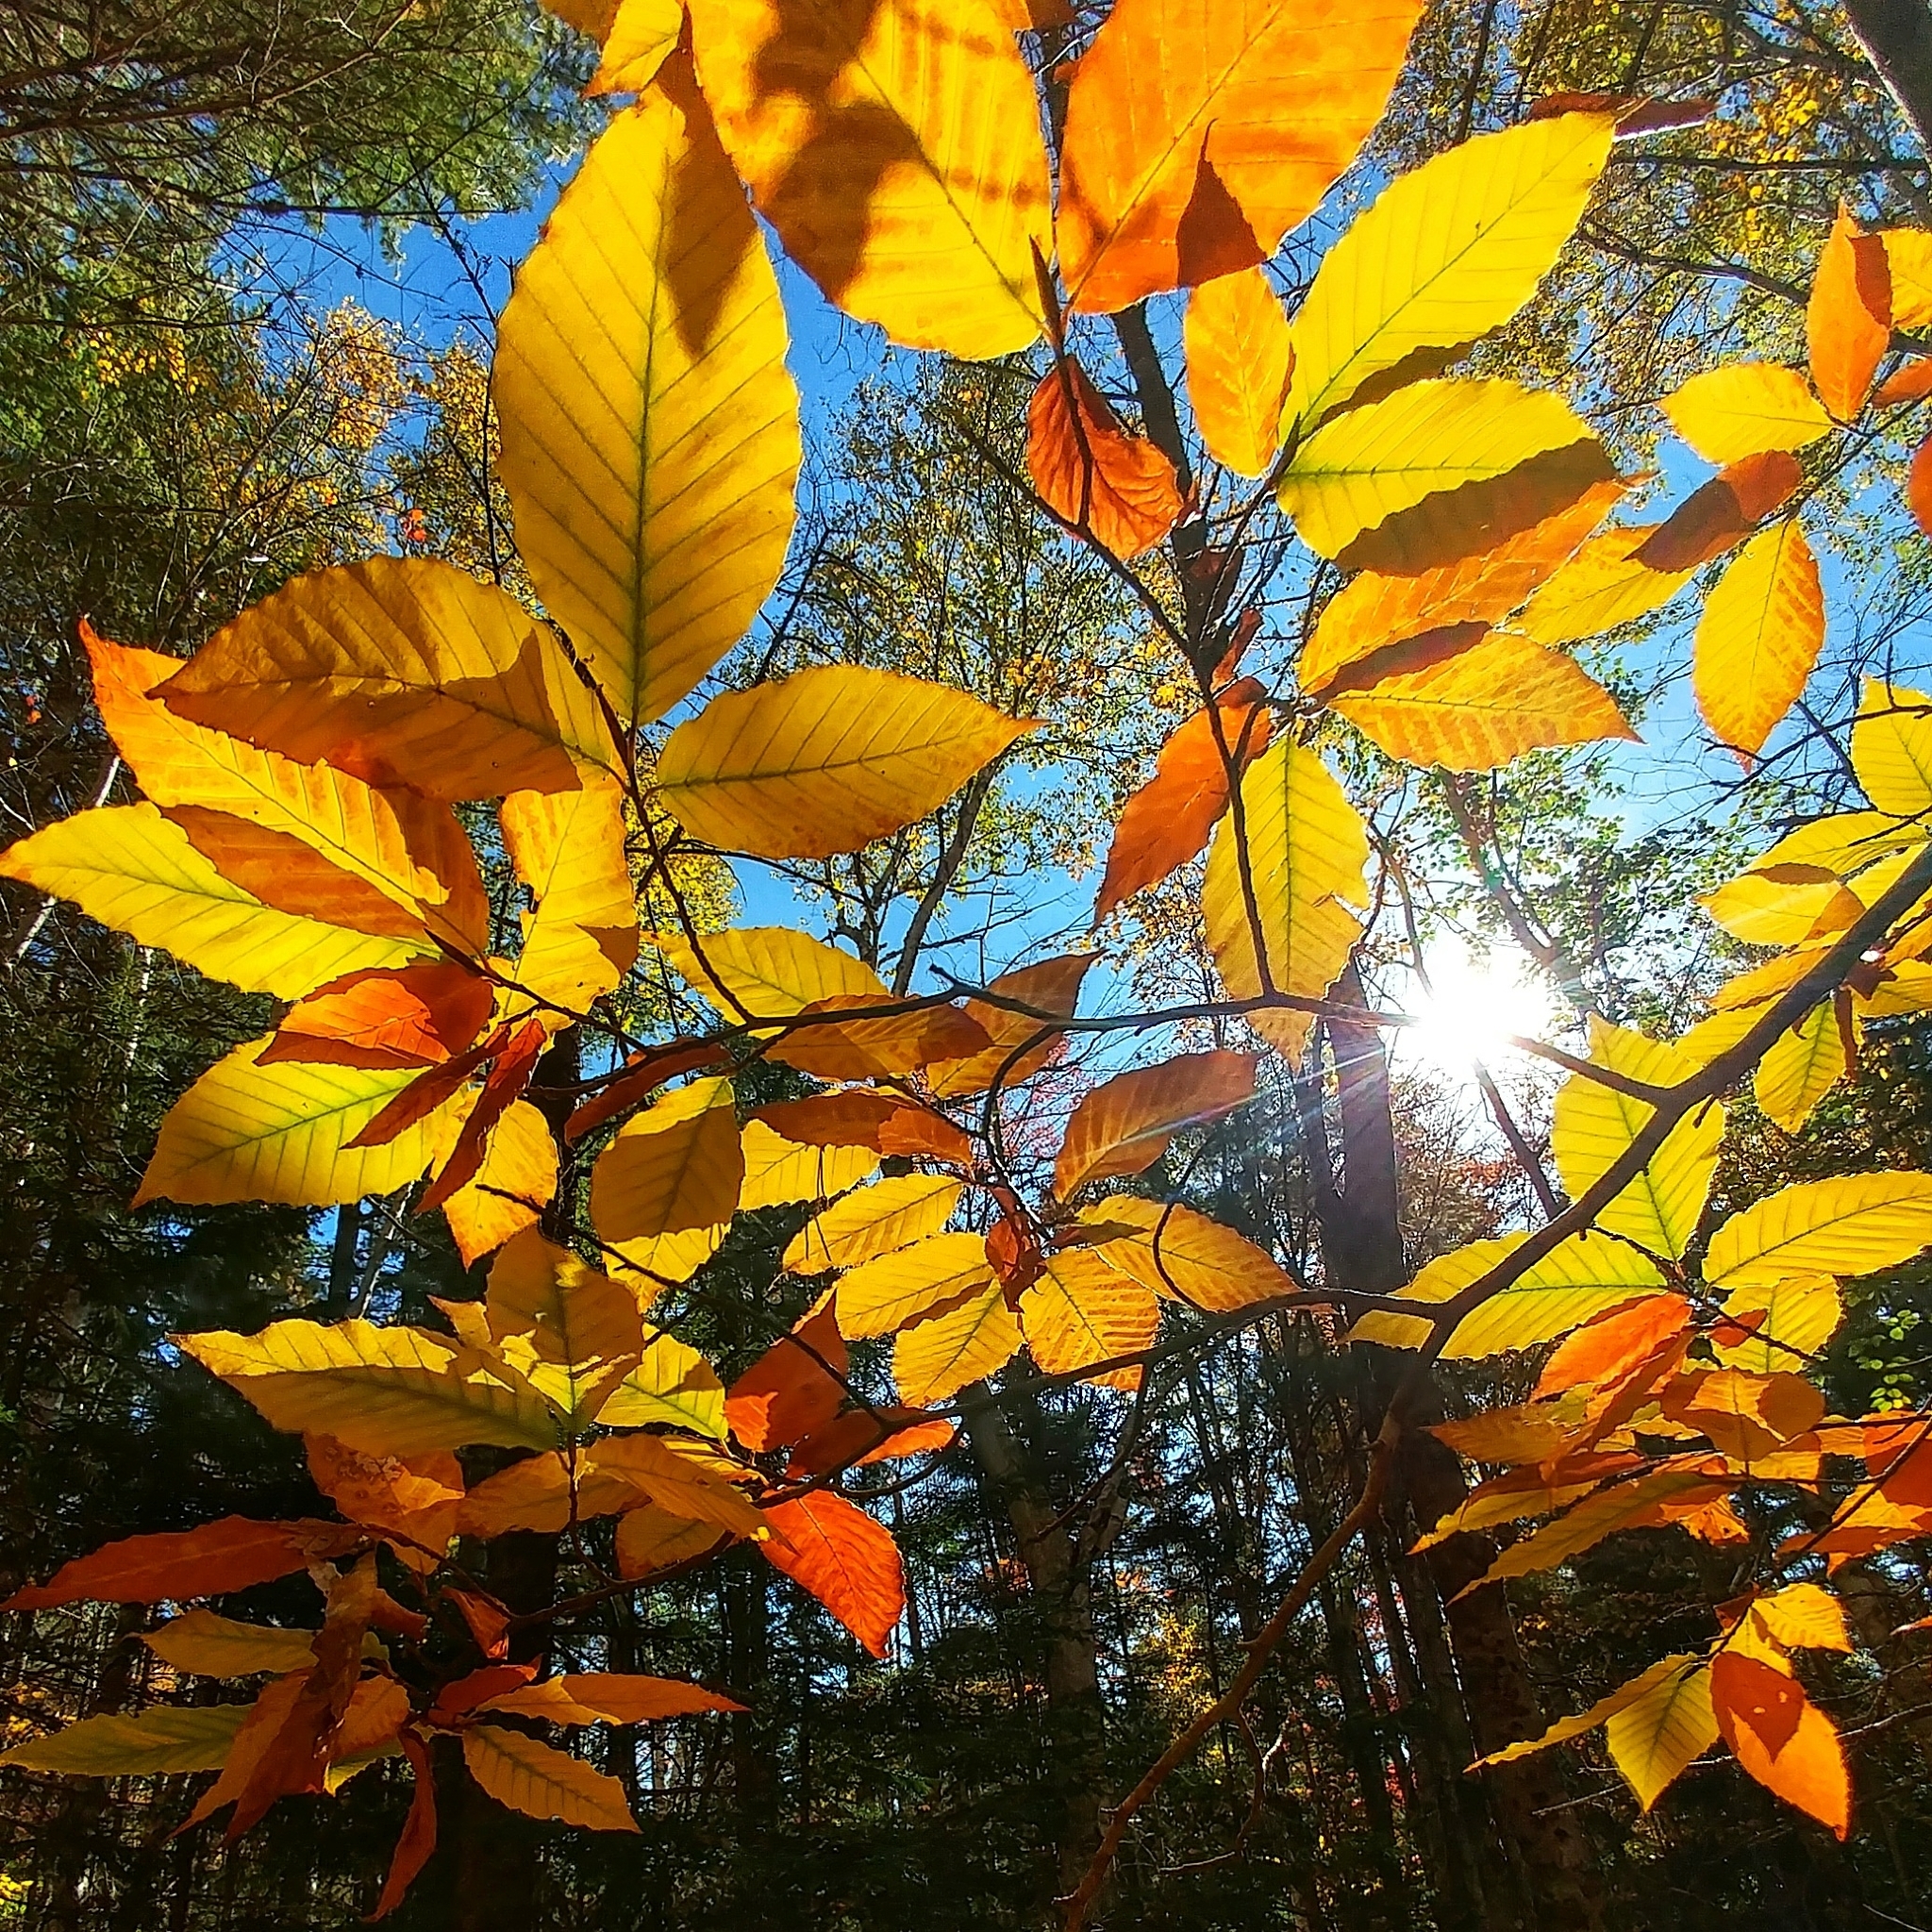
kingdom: Plantae
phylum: Tracheophyta
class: Magnoliopsida
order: Fagales
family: Fagaceae
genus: Fagus
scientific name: Fagus grandifolia
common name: American beech
